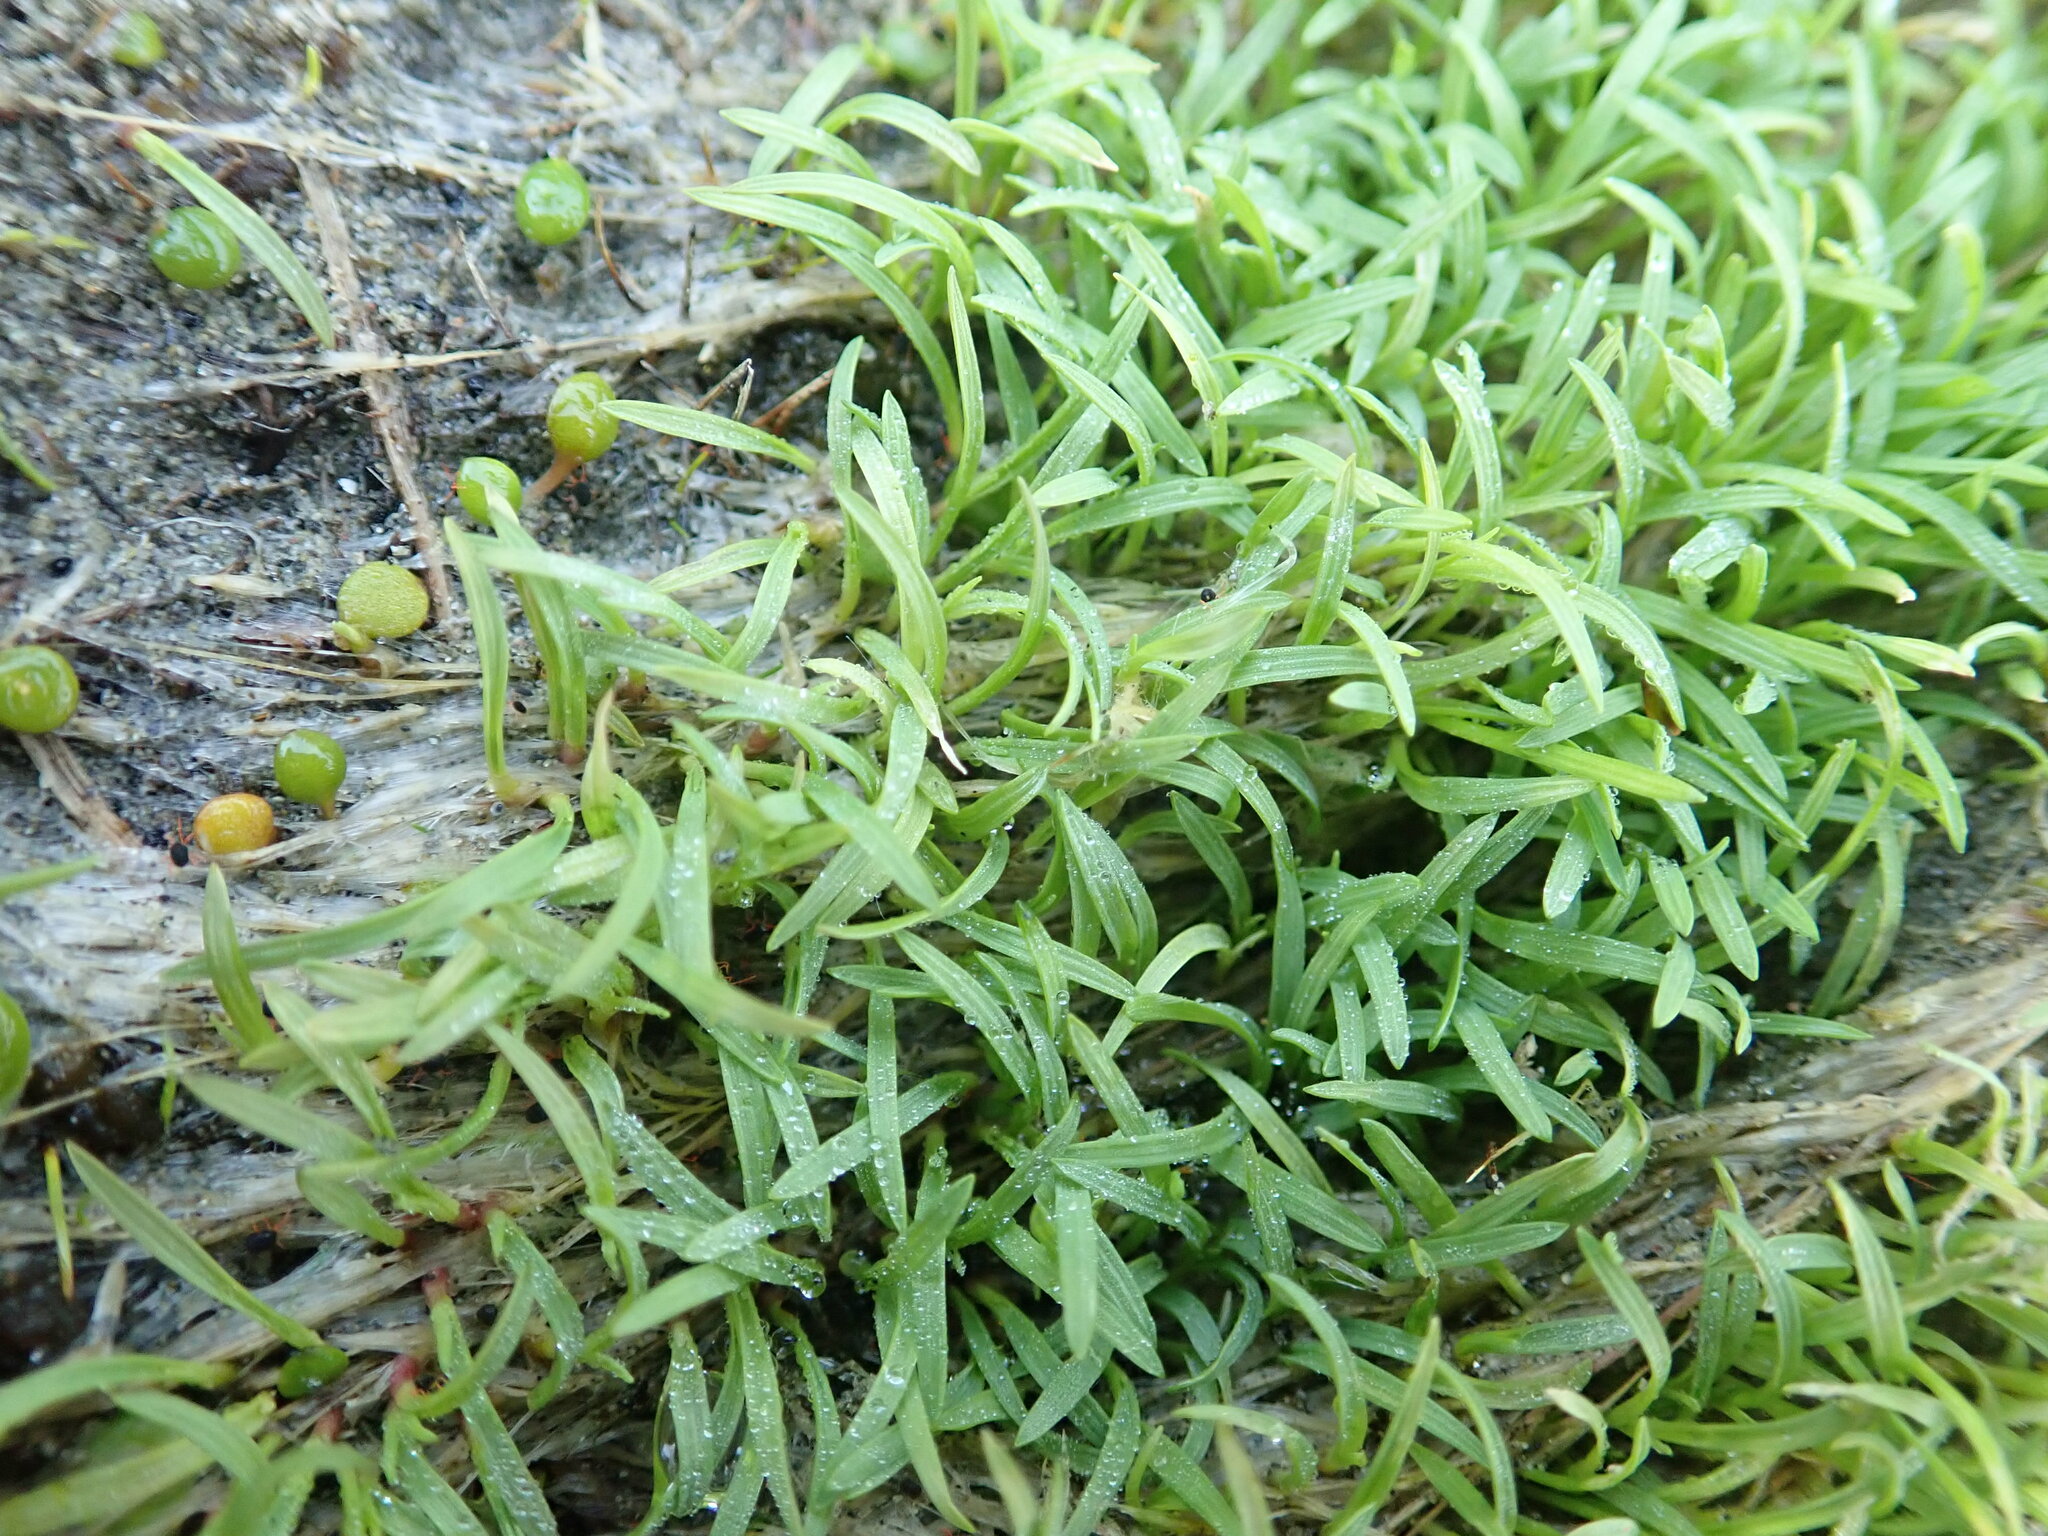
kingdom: Plantae
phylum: Tracheophyta
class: Liliopsida
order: Poales
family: Poaceae
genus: Cortaderia
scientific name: Cortaderia selloana
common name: Uruguayan pampas grass
